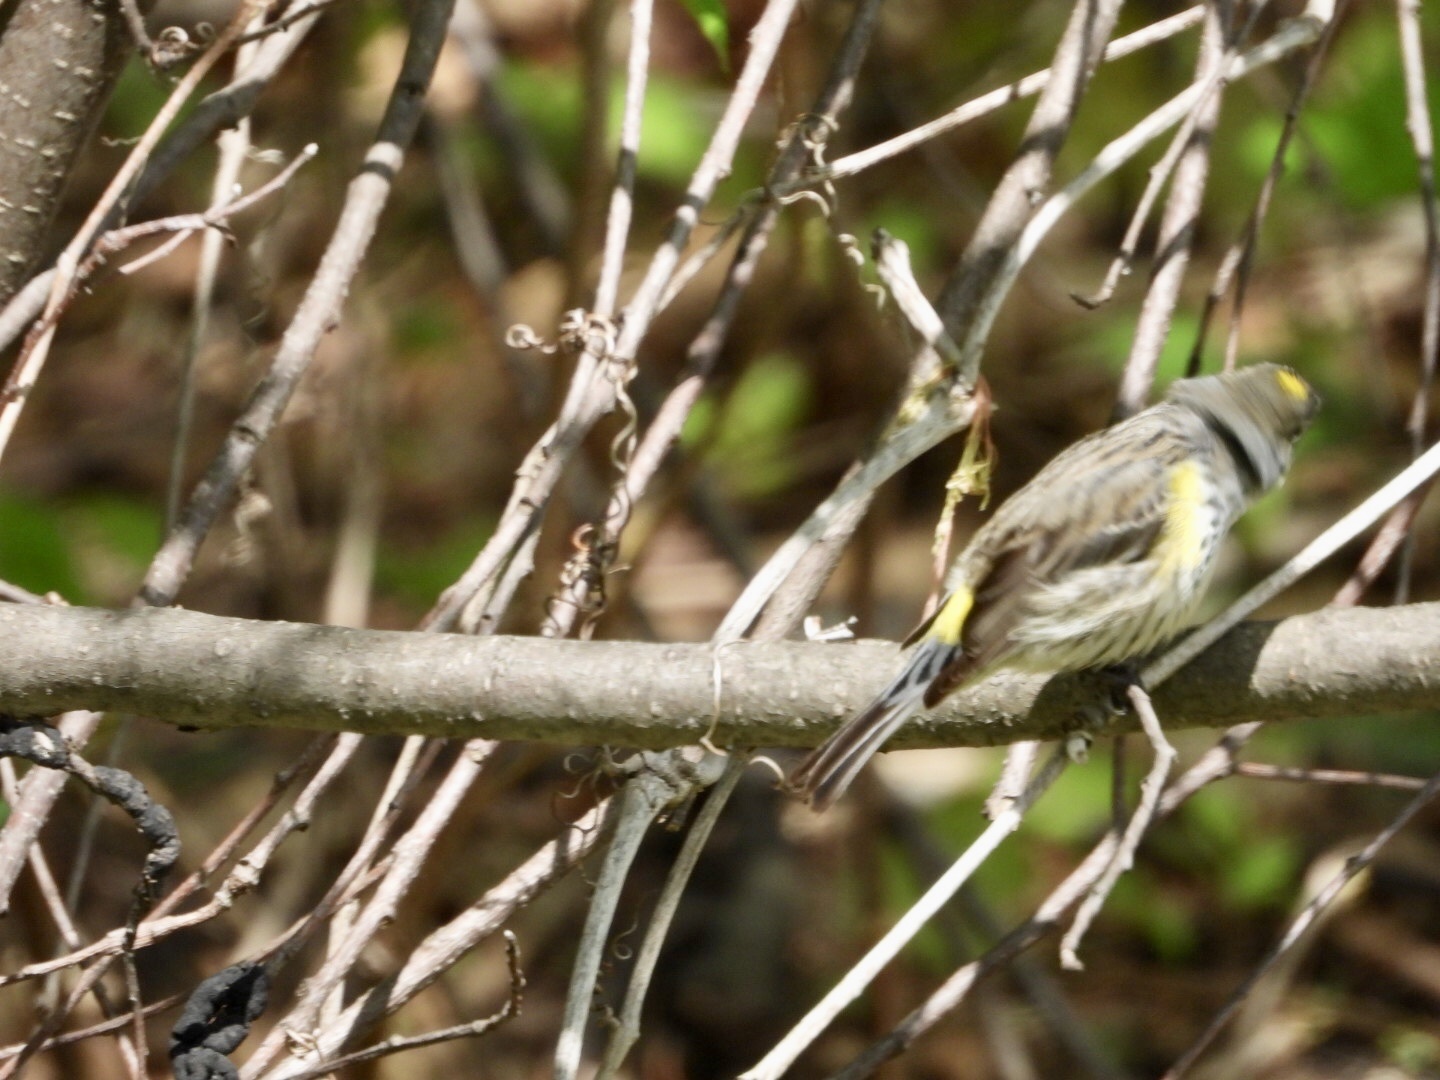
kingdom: Animalia
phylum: Chordata
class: Aves
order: Passeriformes
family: Parulidae
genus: Setophaga
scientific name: Setophaga coronata
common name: Myrtle warbler
